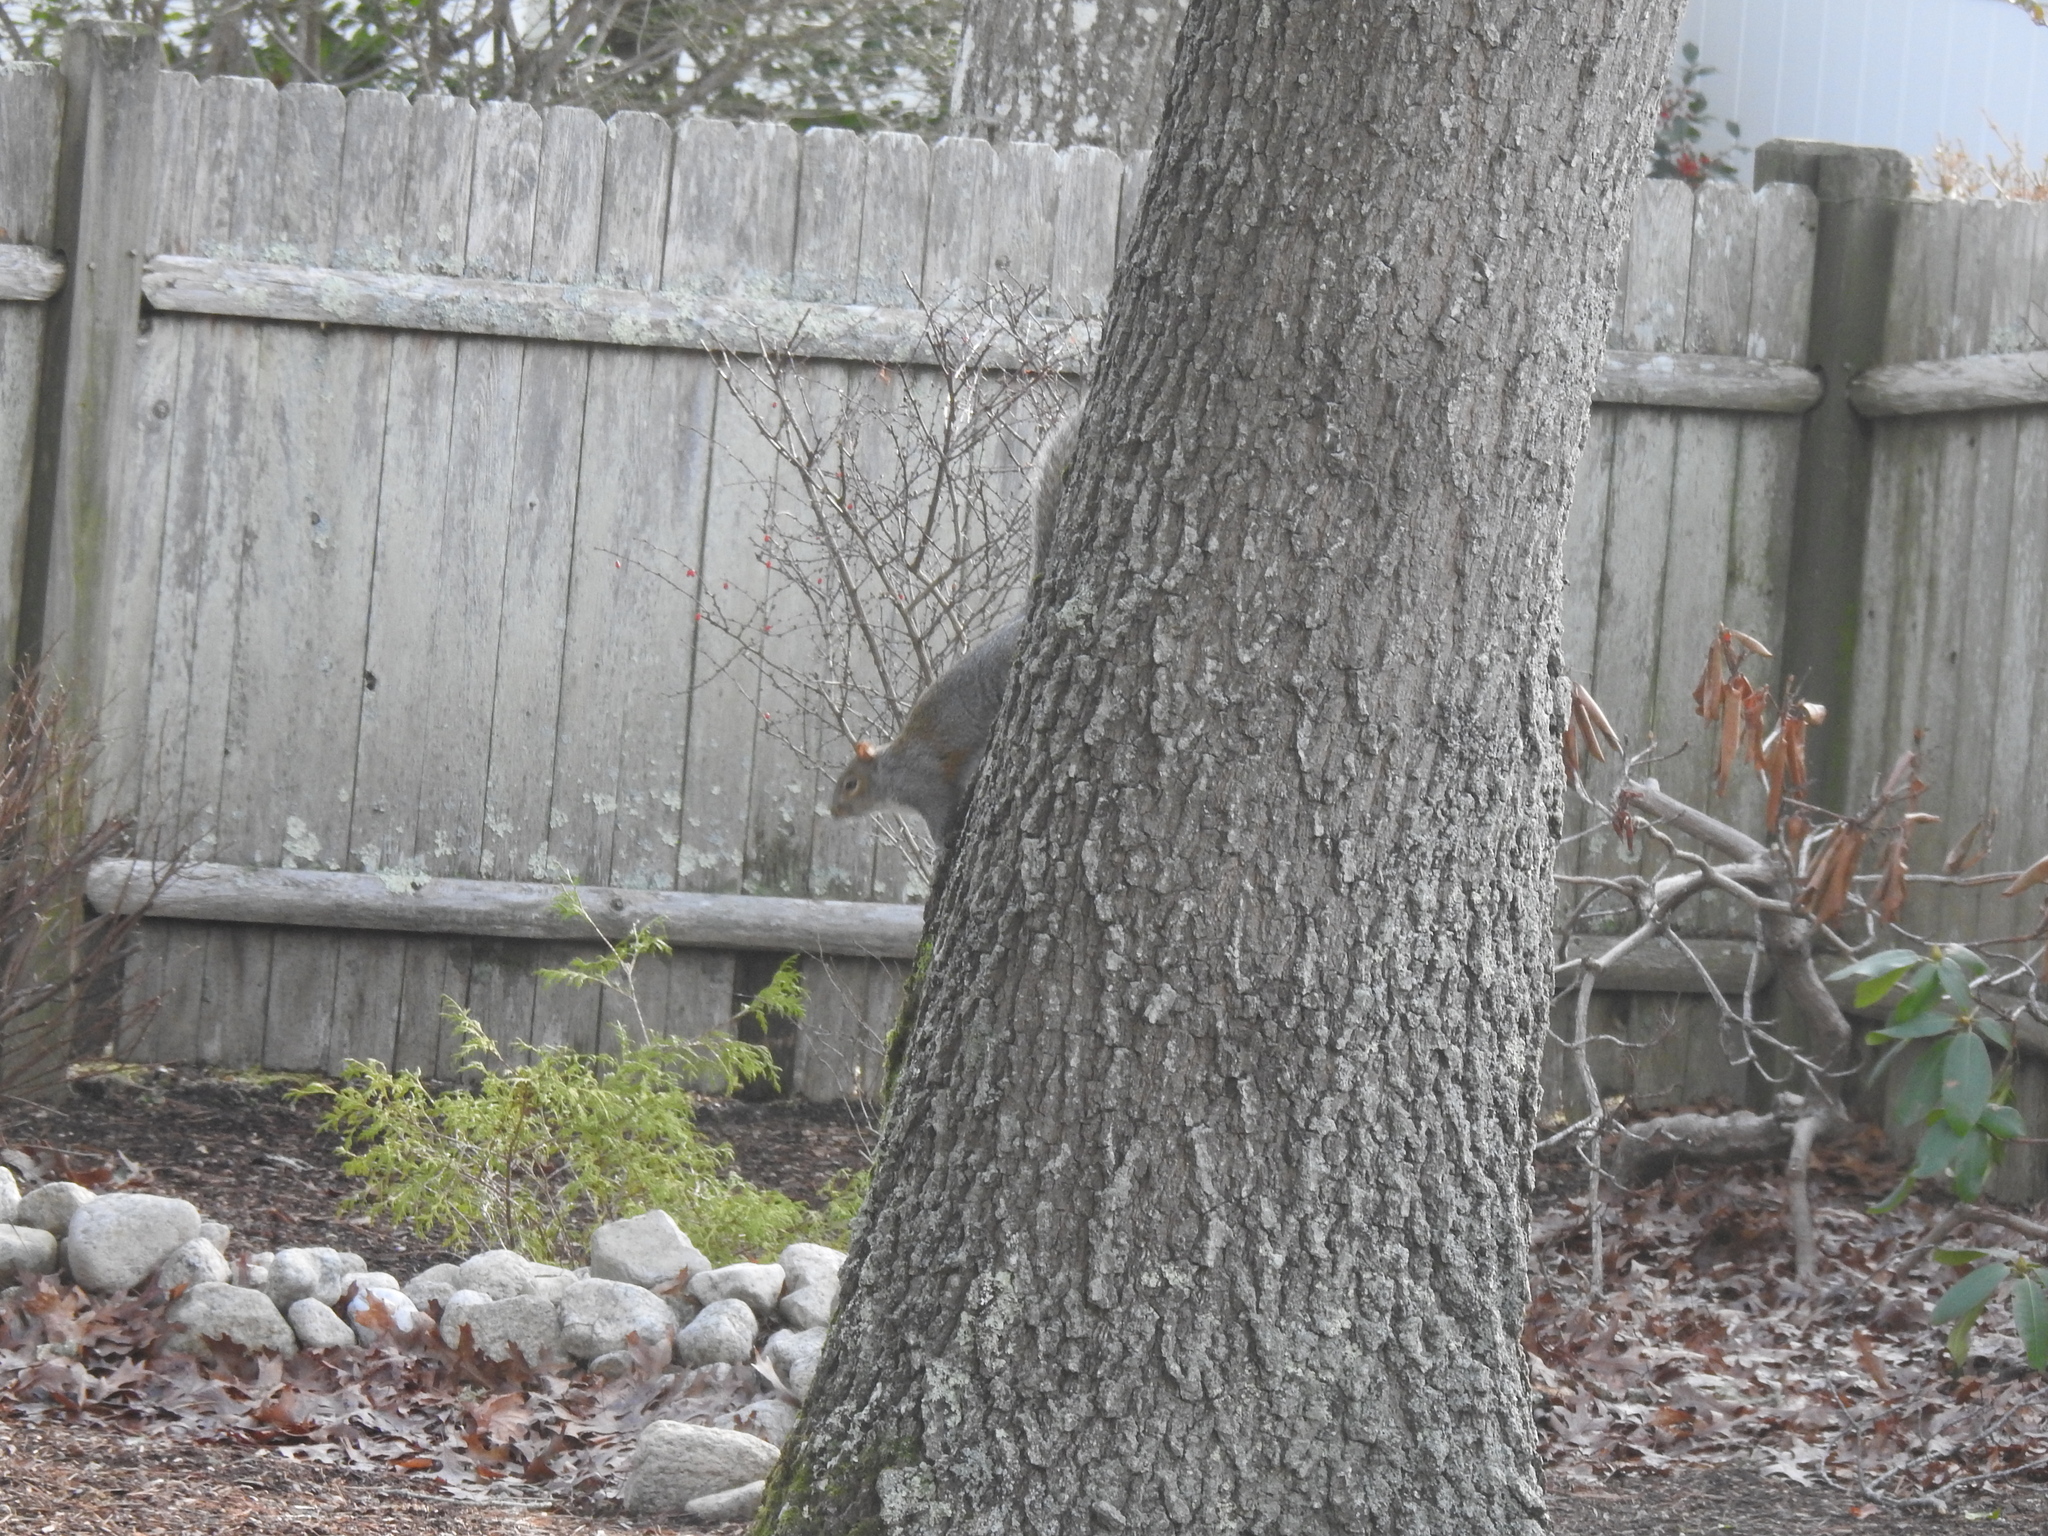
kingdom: Animalia
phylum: Chordata
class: Mammalia
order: Rodentia
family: Sciuridae
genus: Sciurus
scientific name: Sciurus carolinensis
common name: Eastern gray squirrel
